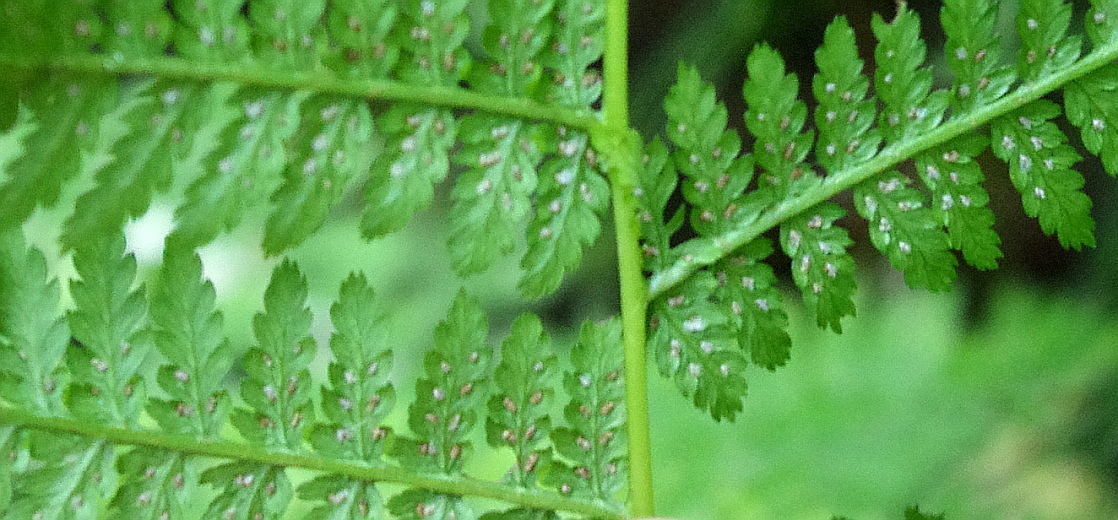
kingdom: Plantae
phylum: Tracheophyta
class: Polypodiopsida
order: Polypodiales
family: Athyriaceae
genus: Athyrium
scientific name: Athyrium filix-femina
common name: Lady fern
